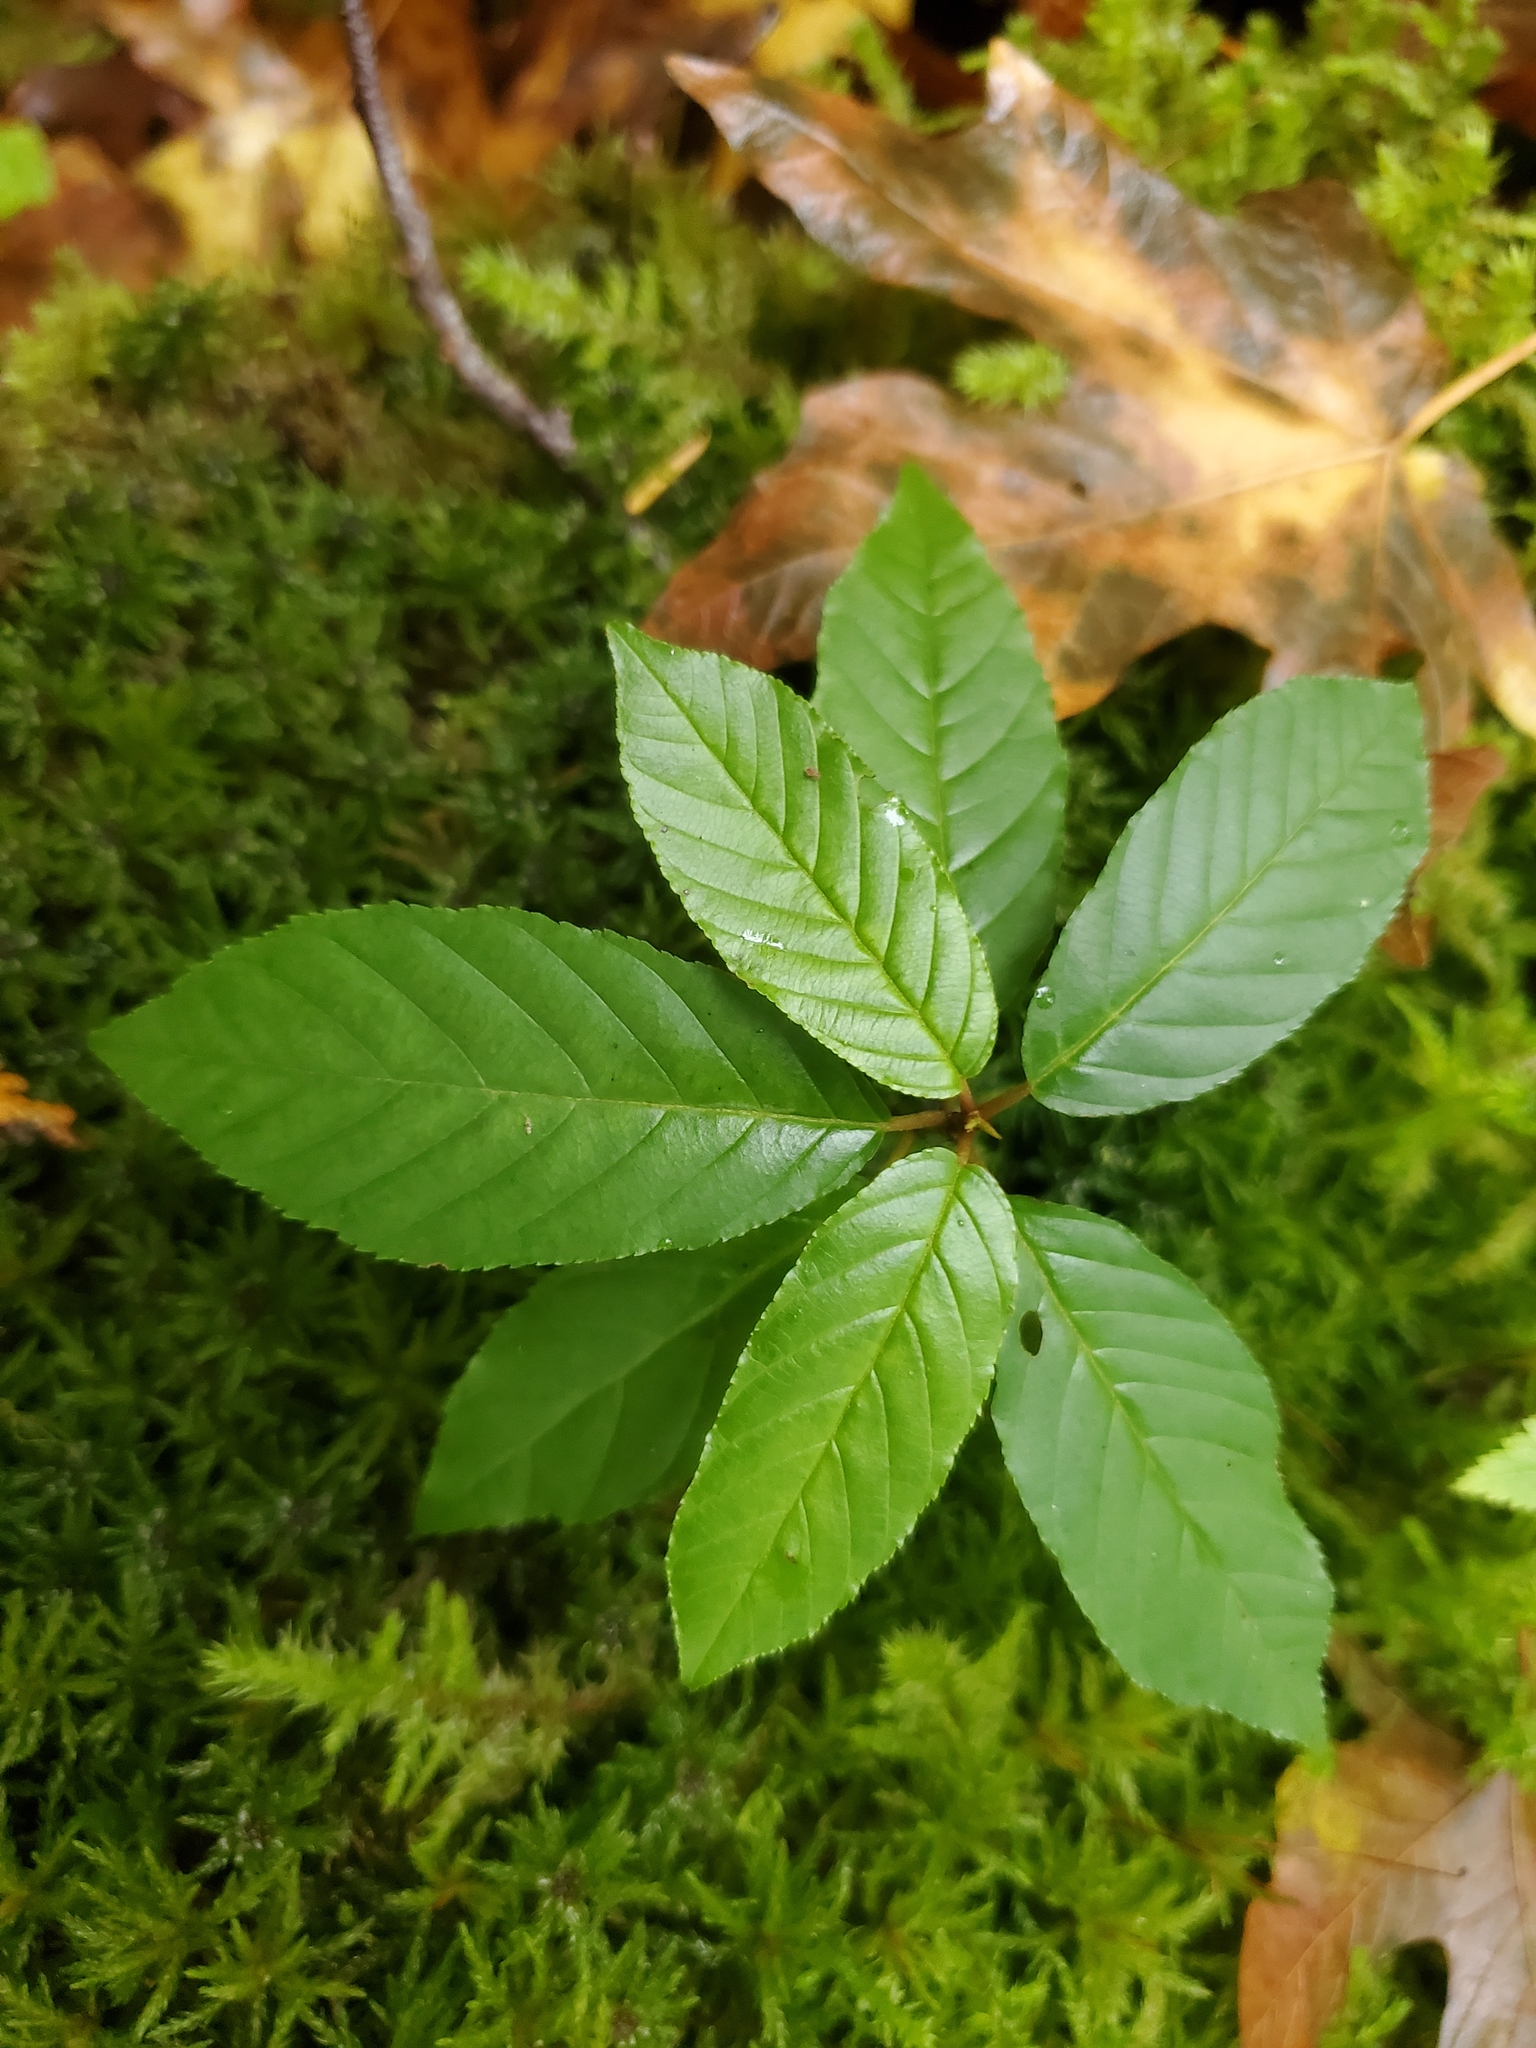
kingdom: Plantae
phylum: Tracheophyta
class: Magnoliopsida
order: Rosales
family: Rhamnaceae
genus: Frangula
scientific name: Frangula purshiana
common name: Cascara buckthorn
